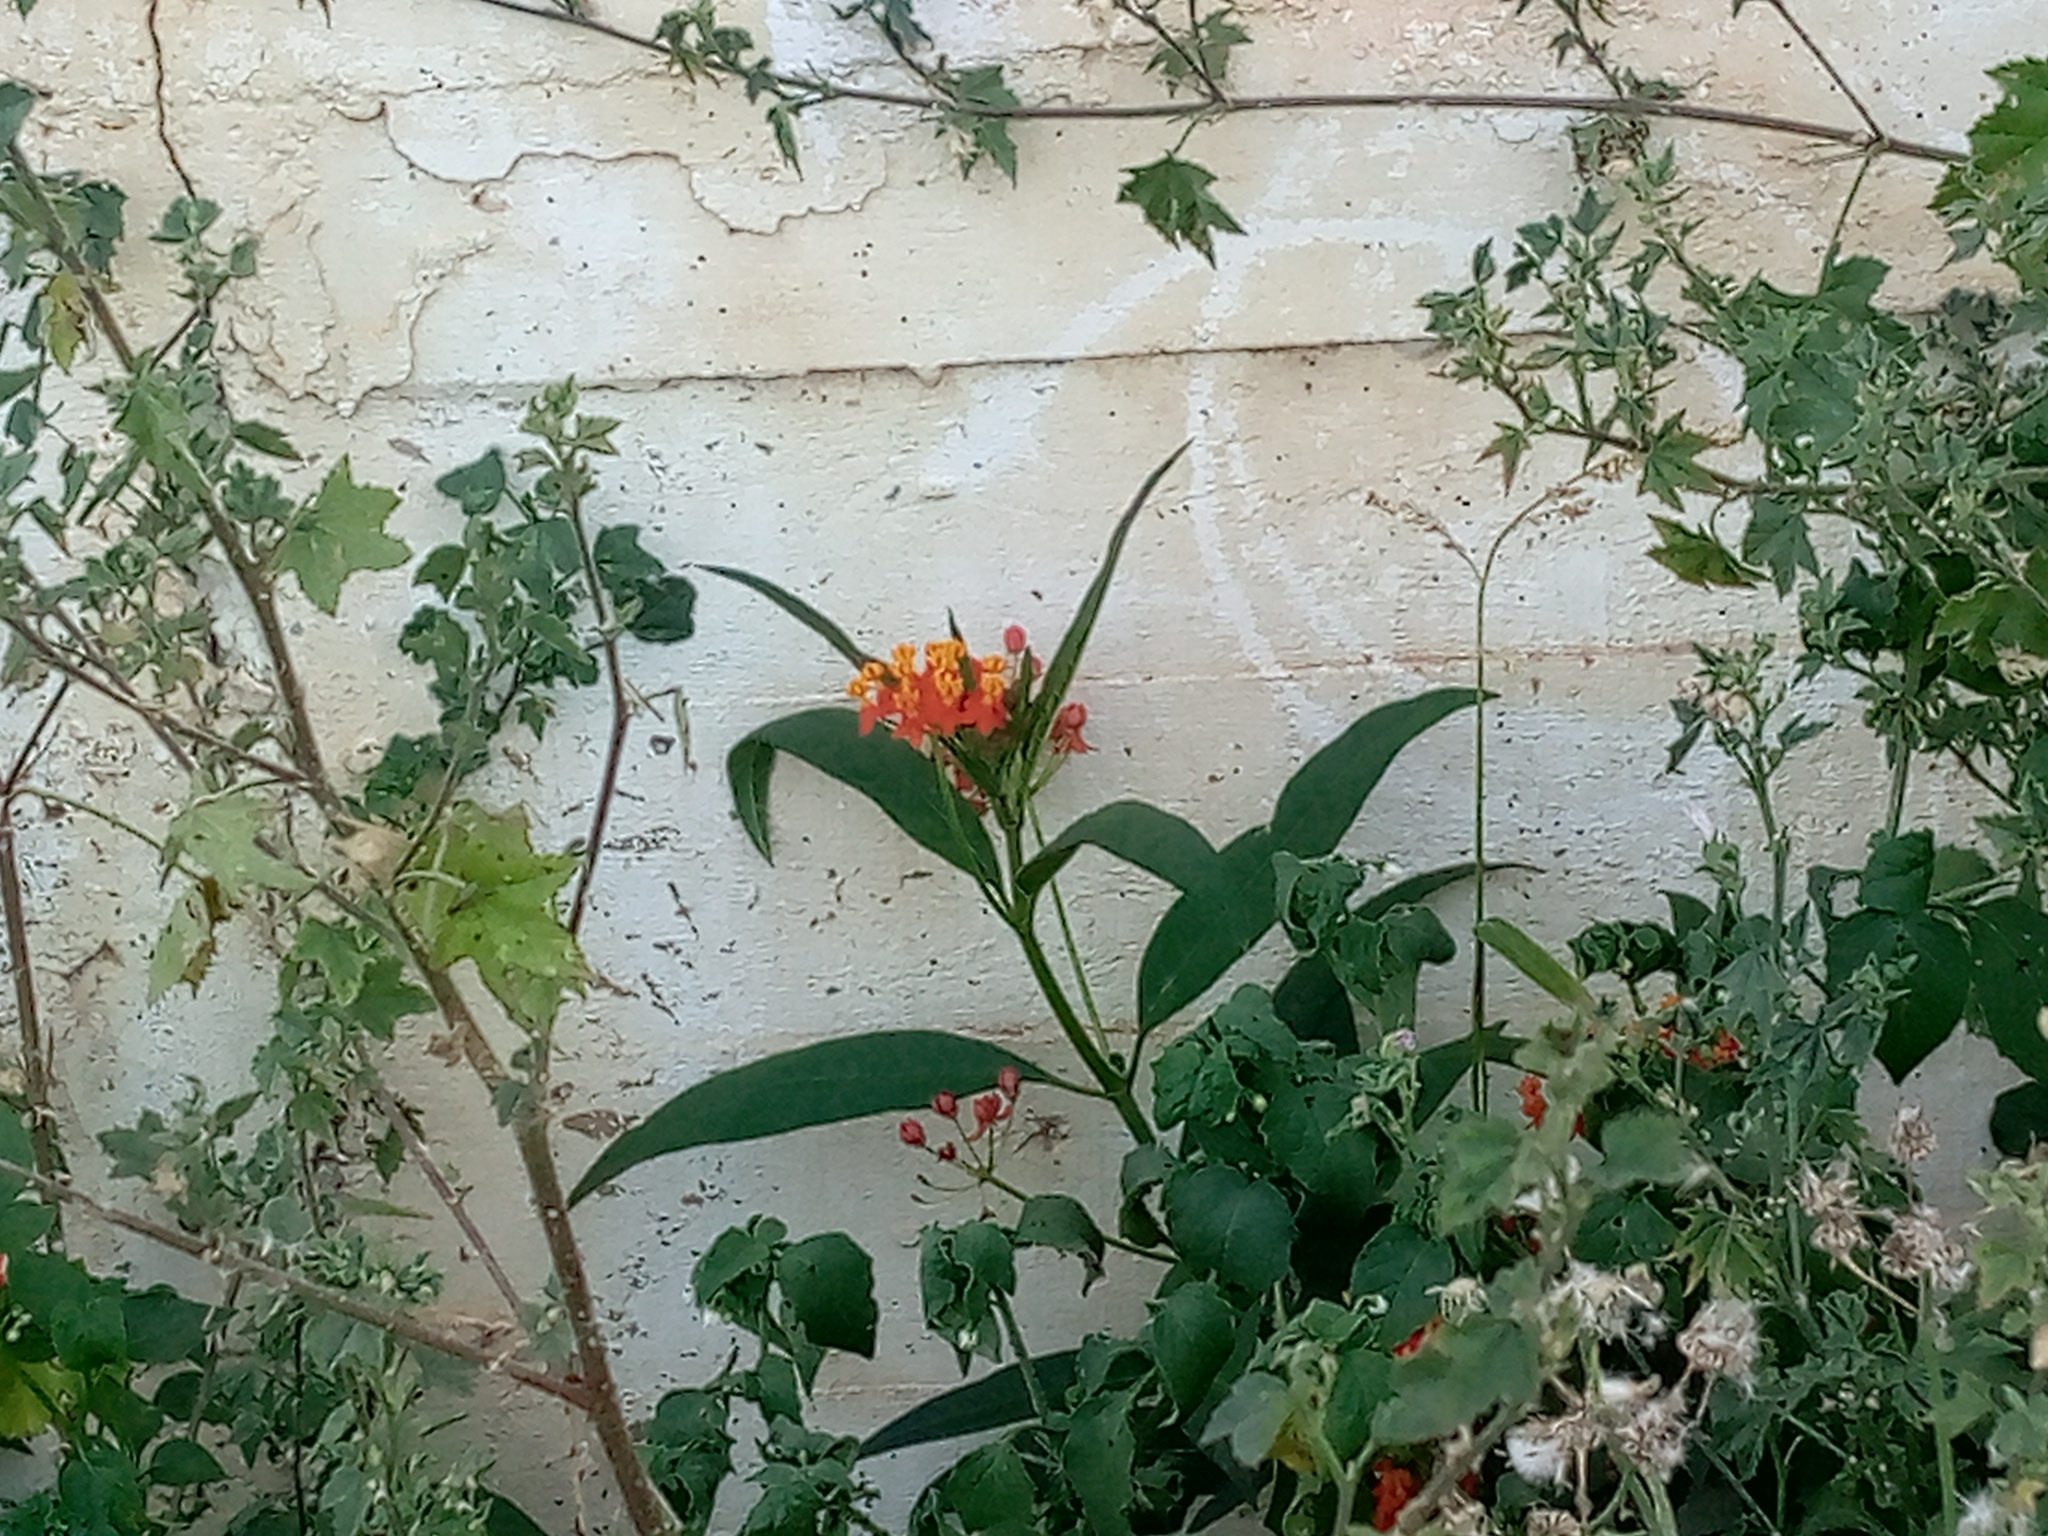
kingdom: Plantae
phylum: Tracheophyta
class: Magnoliopsida
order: Gentianales
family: Apocynaceae
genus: Asclepias
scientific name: Asclepias curassavica
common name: Bloodflower
